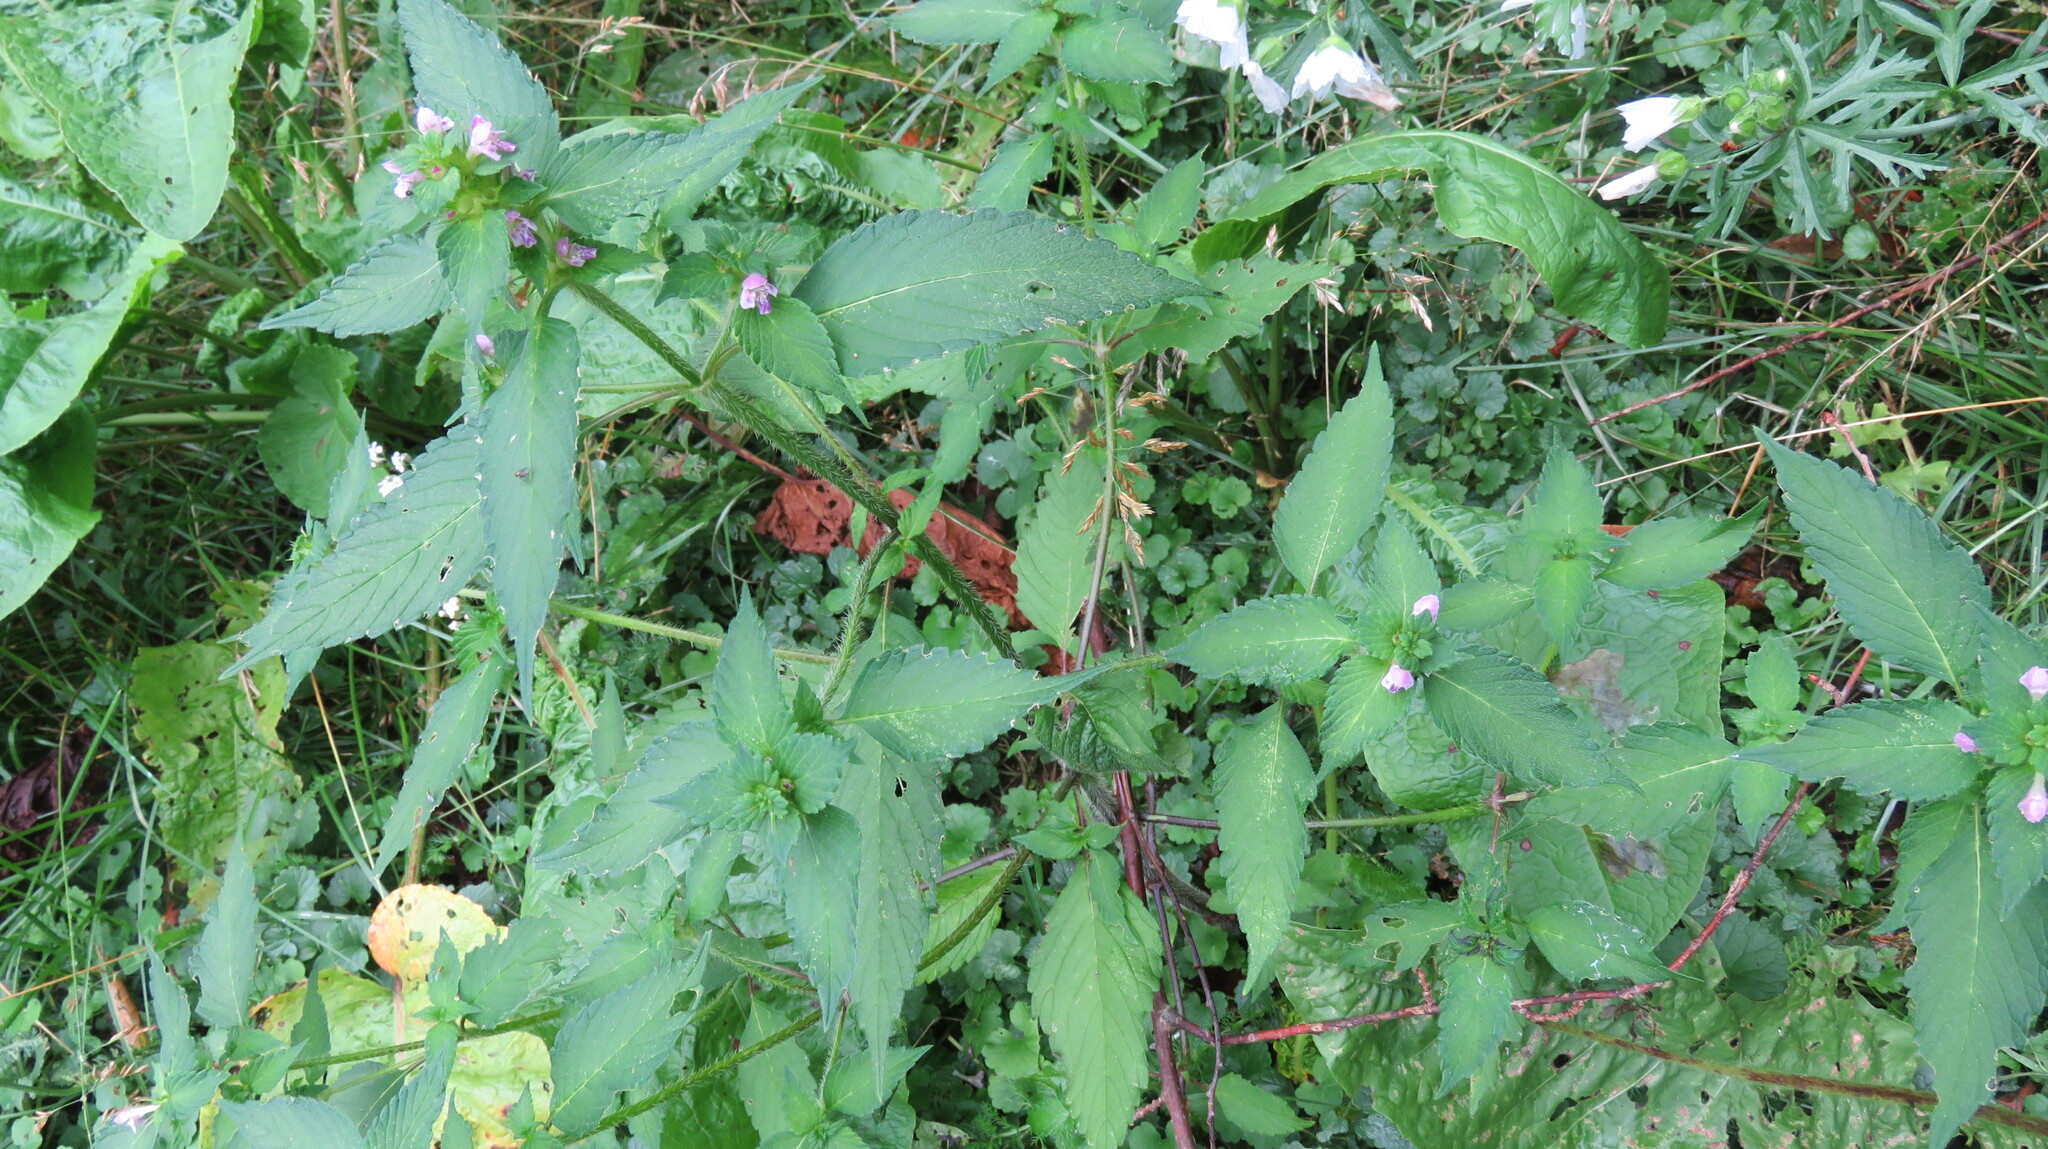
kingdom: Plantae
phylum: Tracheophyta
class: Magnoliopsida
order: Lamiales
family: Lamiaceae
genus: Galeopsis
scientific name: Galeopsis bifida
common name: Bifid hemp-nettle
